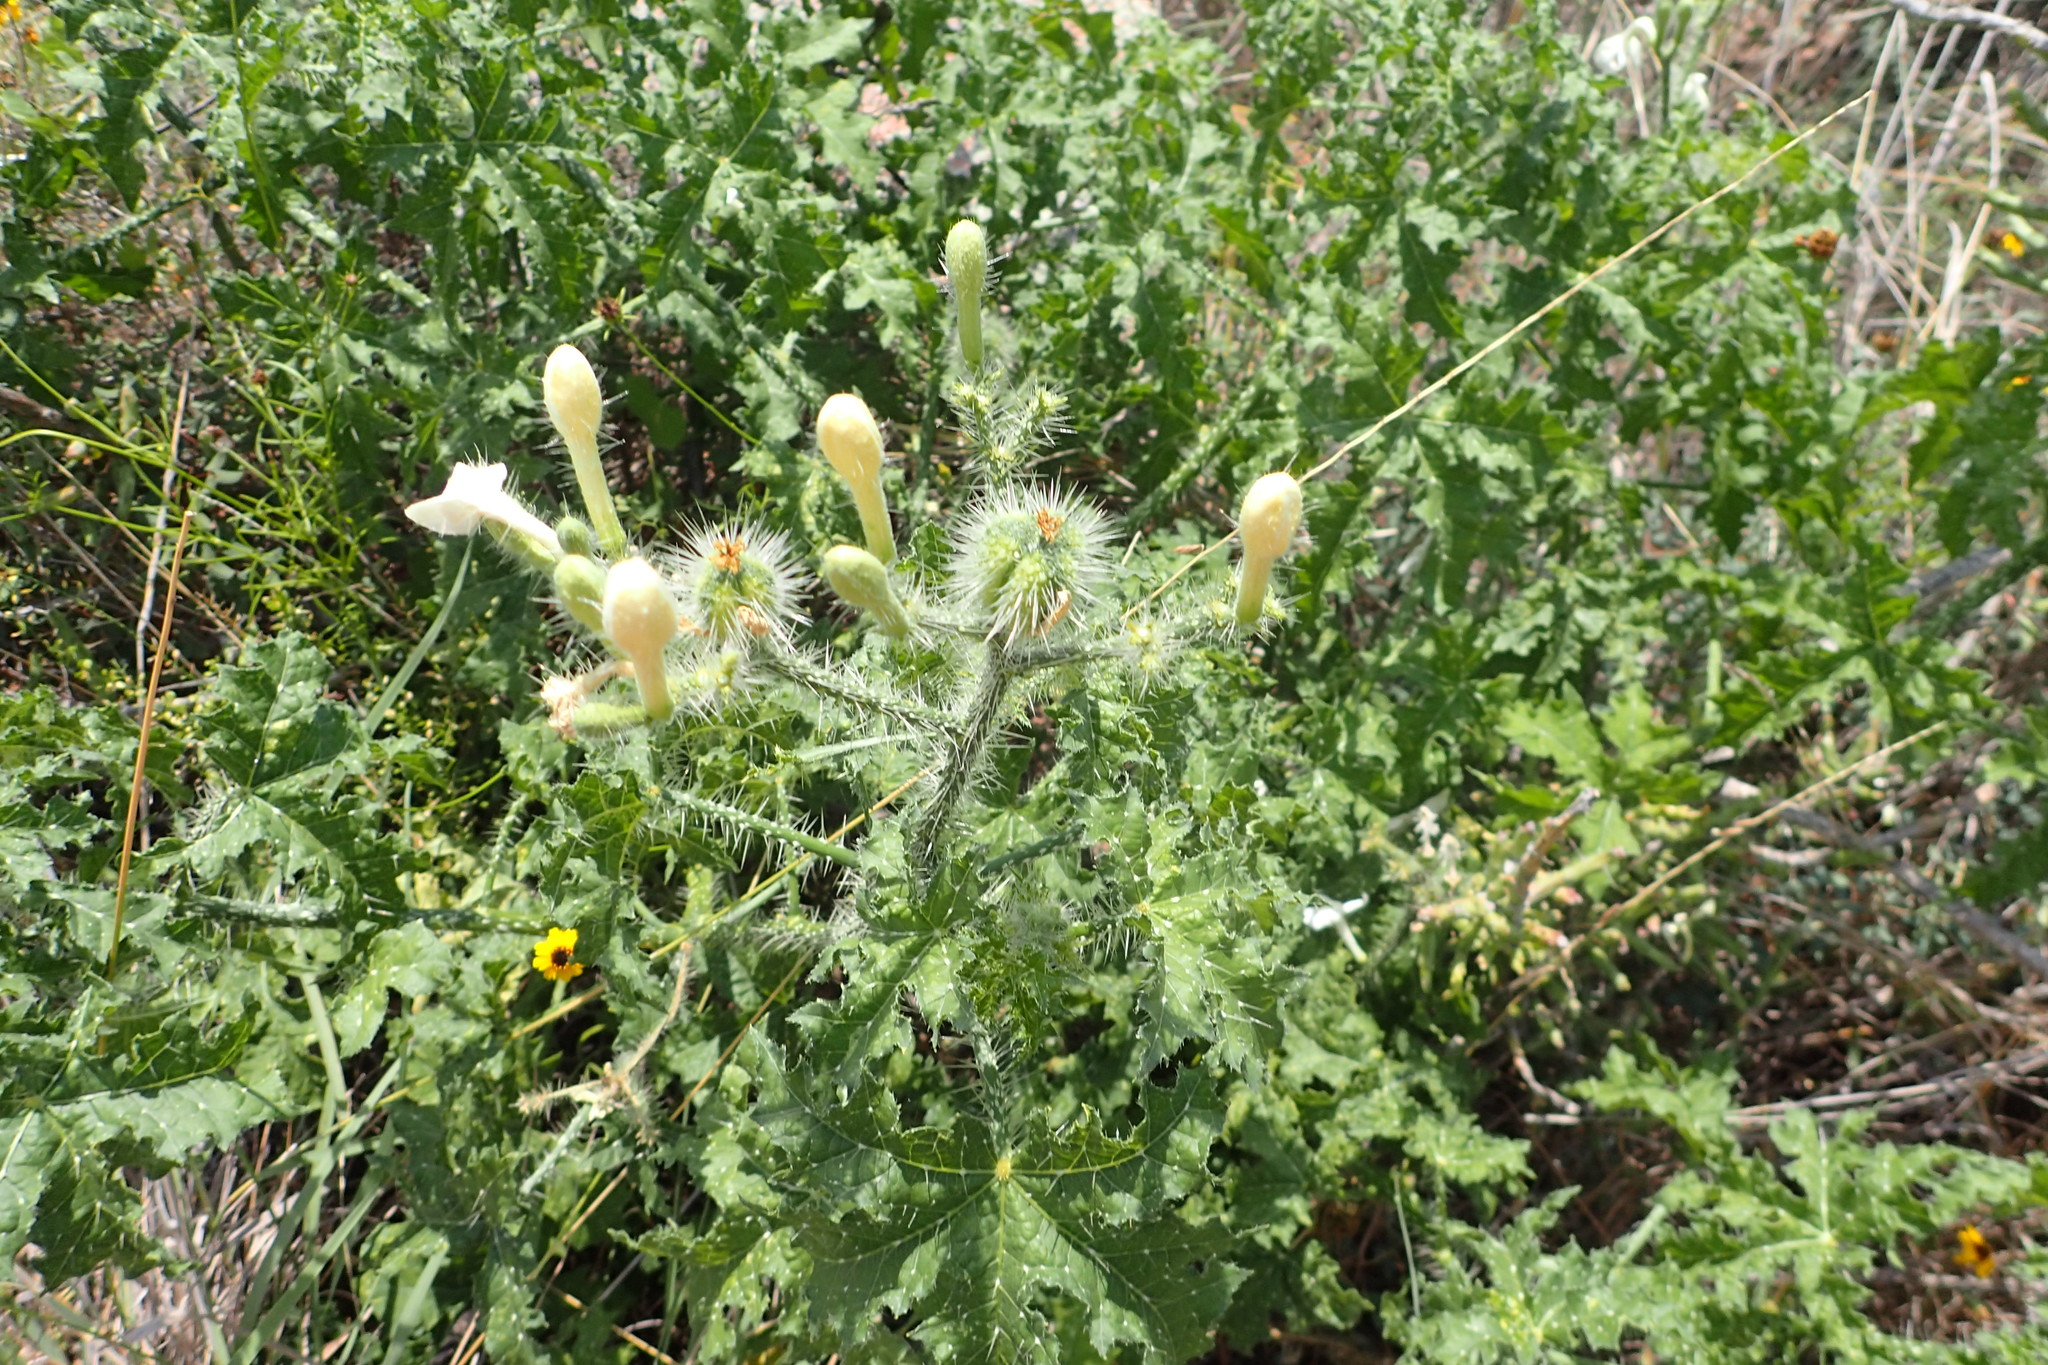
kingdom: Plantae
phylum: Tracheophyta
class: Magnoliopsida
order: Malpighiales
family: Euphorbiaceae
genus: Cnidoscolus
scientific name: Cnidoscolus texanus
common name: Texas bull-nettle
